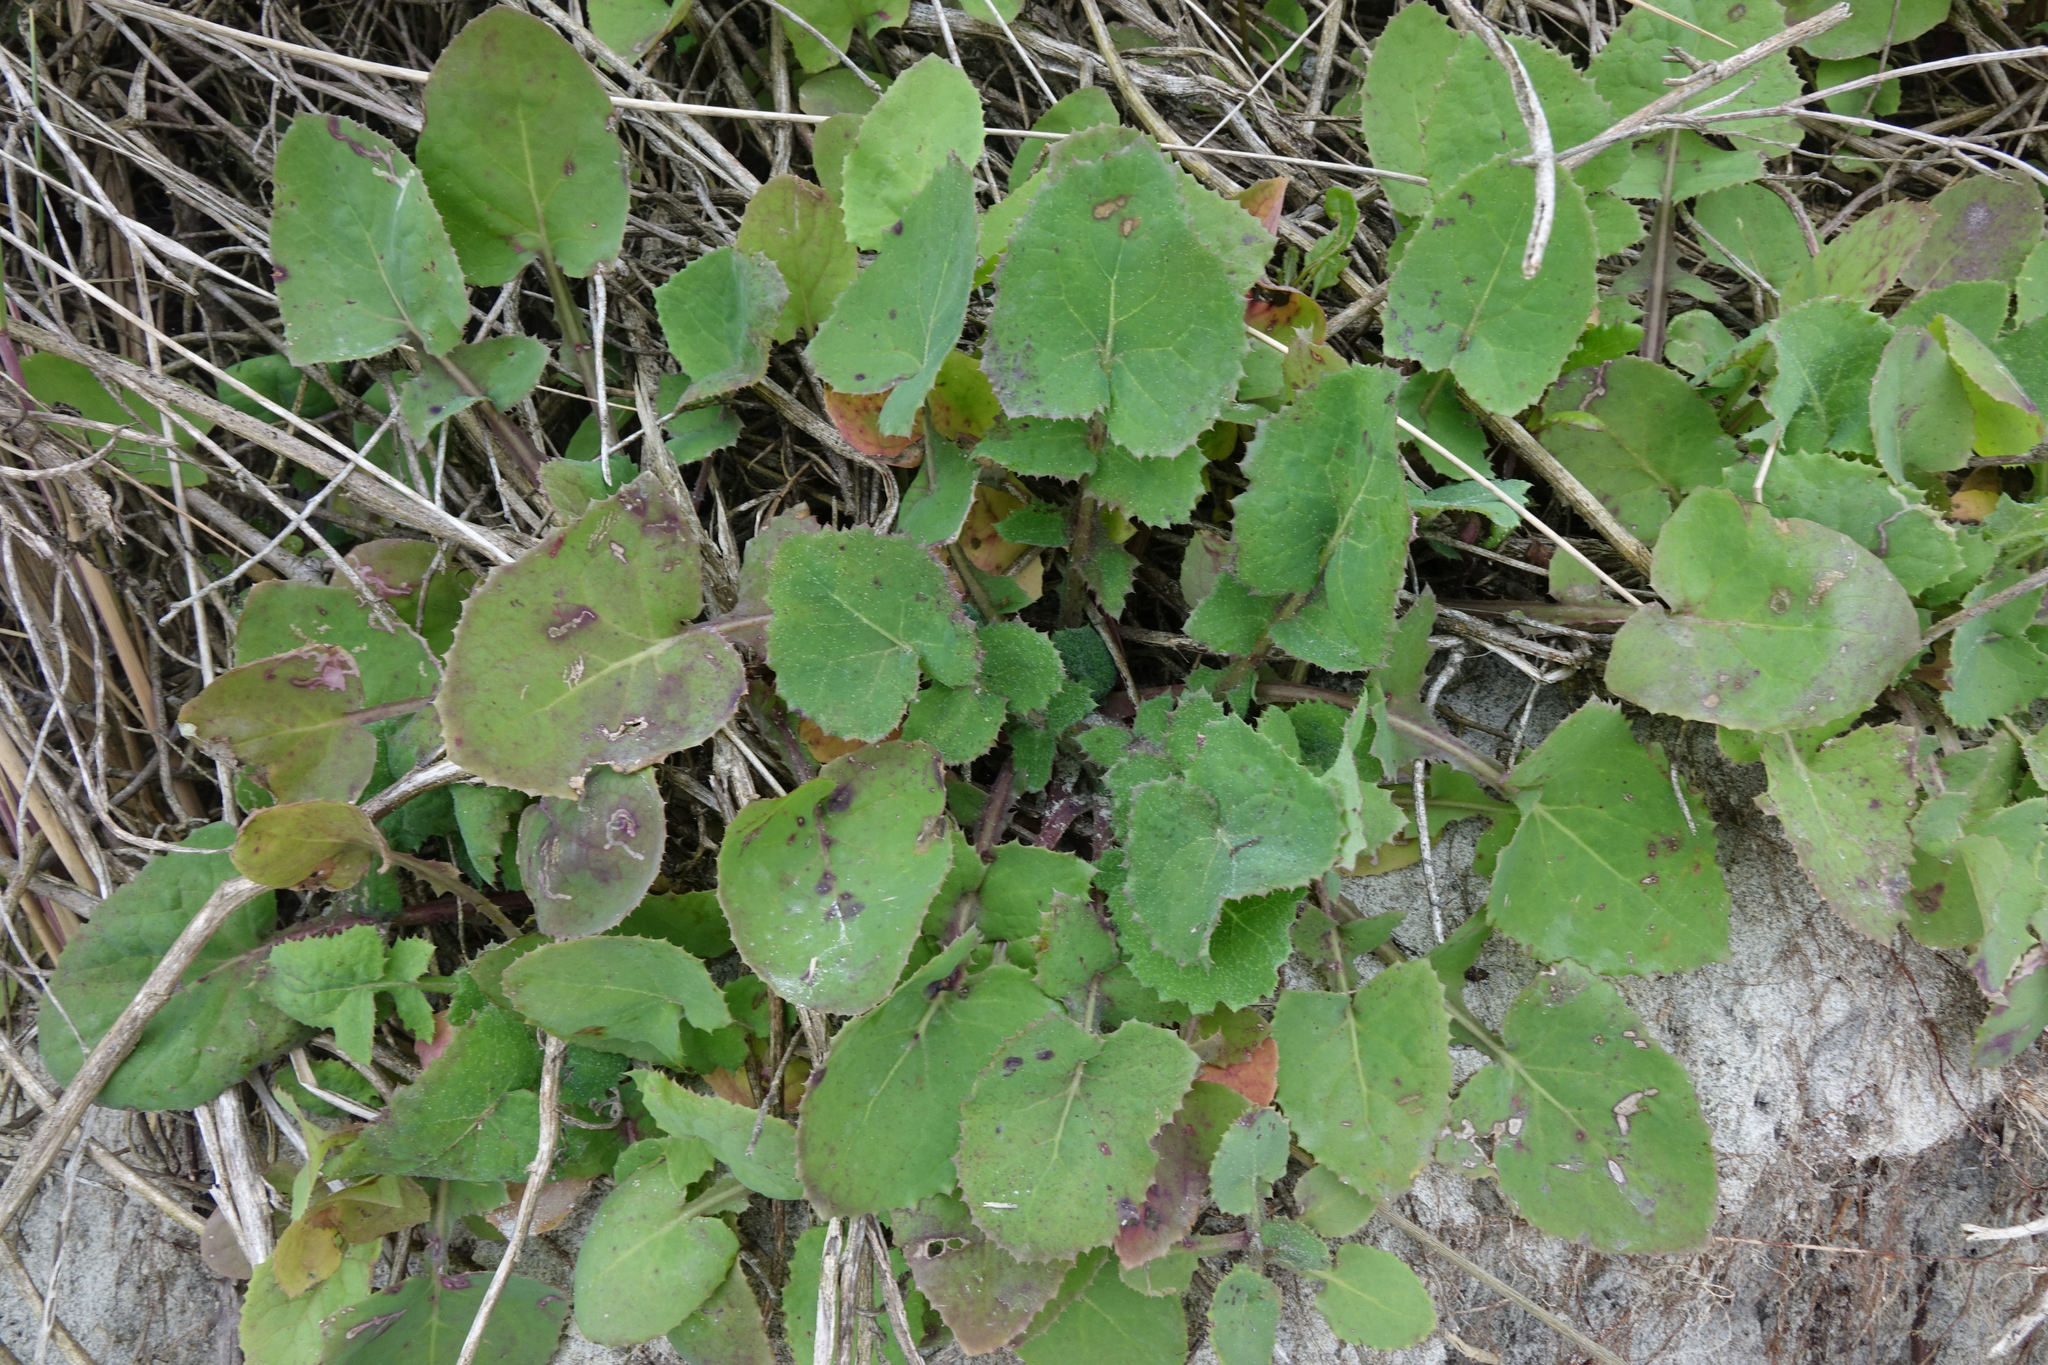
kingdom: Plantae
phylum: Tracheophyta
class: Magnoliopsida
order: Asterales
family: Asteraceae
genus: Sonchus
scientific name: Sonchus oleraceus
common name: Common sowthistle
